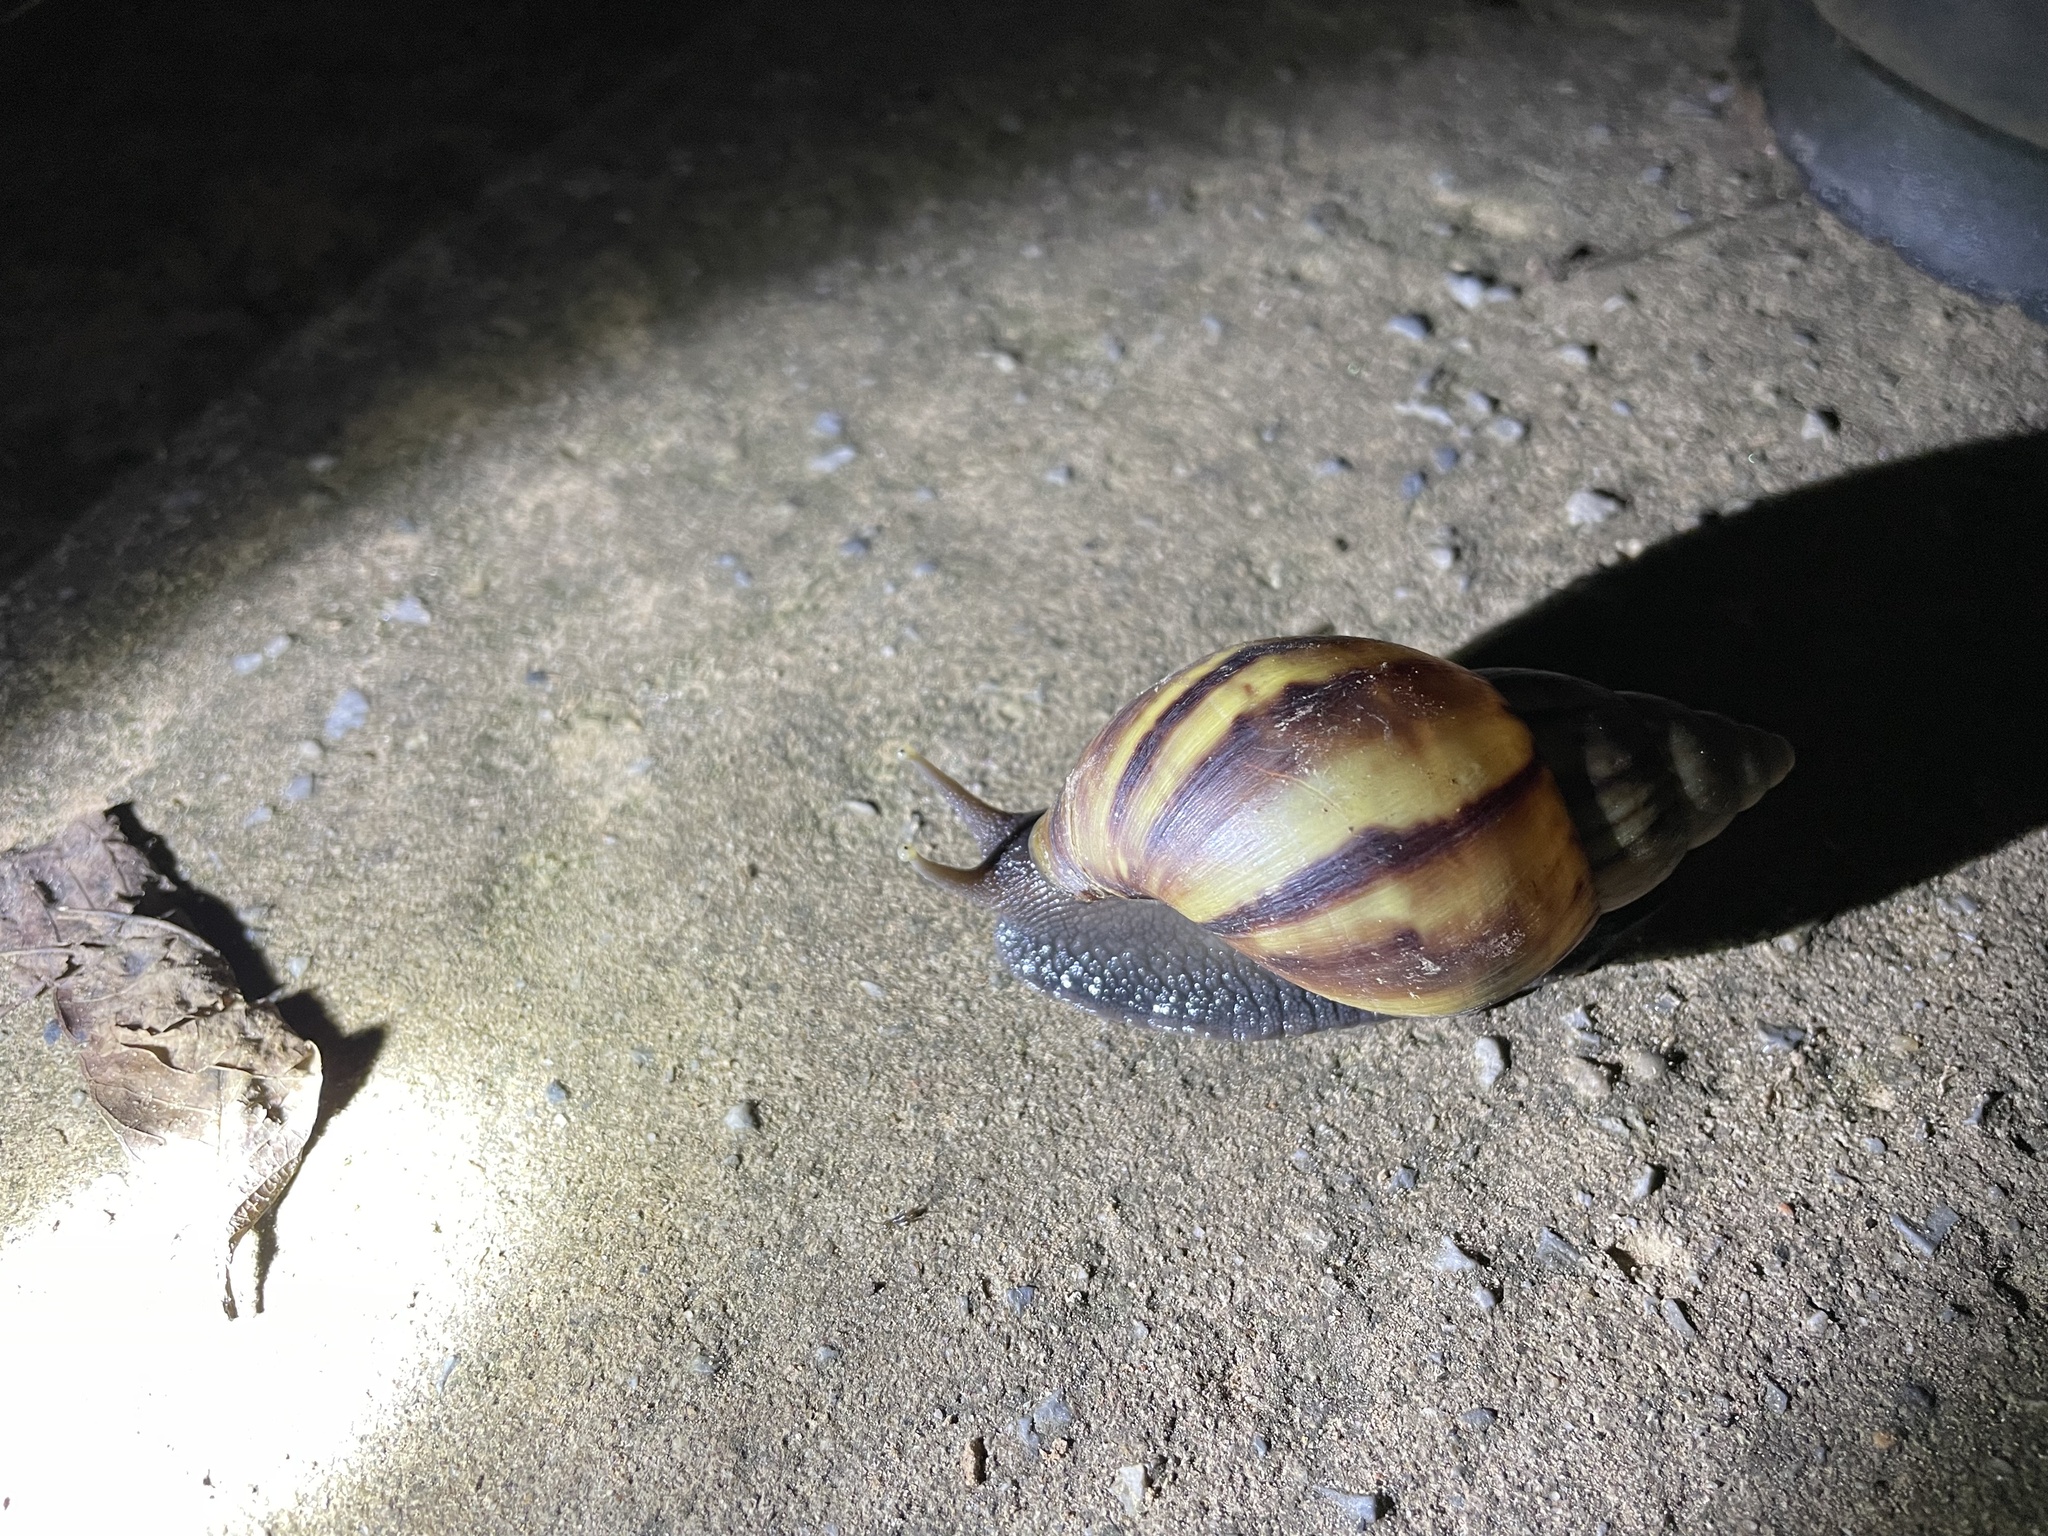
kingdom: Animalia
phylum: Mollusca
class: Gastropoda
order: Stylommatophora
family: Achatinidae
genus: Lissachatina
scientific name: Lissachatina fulica
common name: Giant african snail
